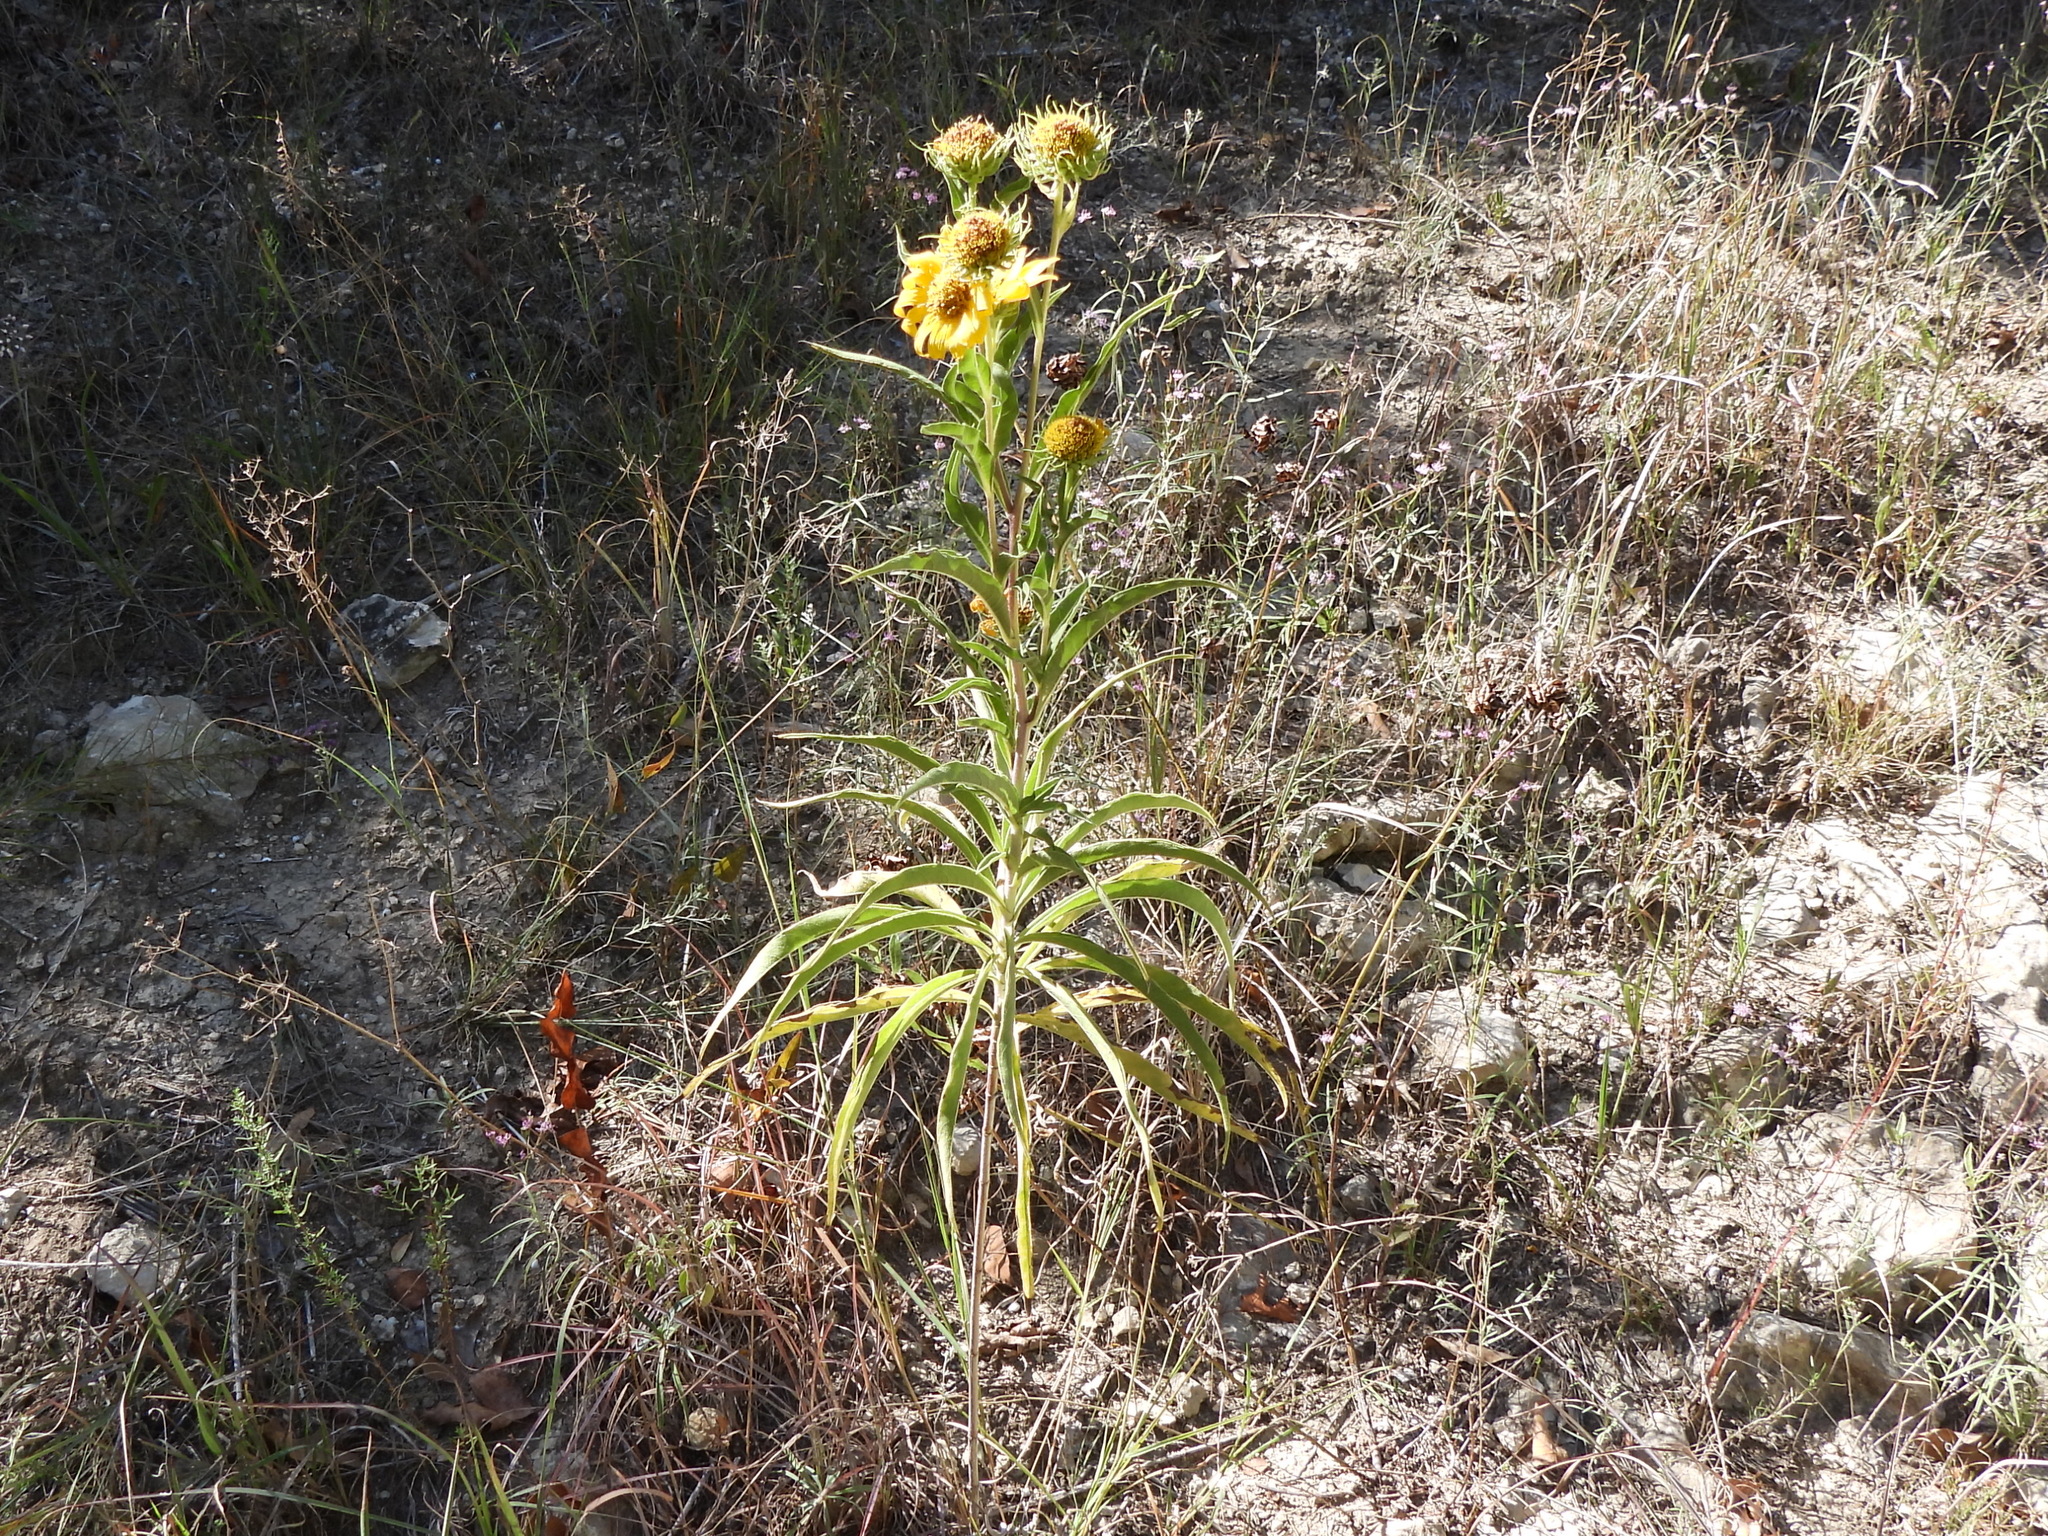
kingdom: Plantae
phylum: Tracheophyta
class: Magnoliopsida
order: Asterales
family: Asteraceae
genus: Helianthus
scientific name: Helianthus maximiliani
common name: Maximilian's sunflower
